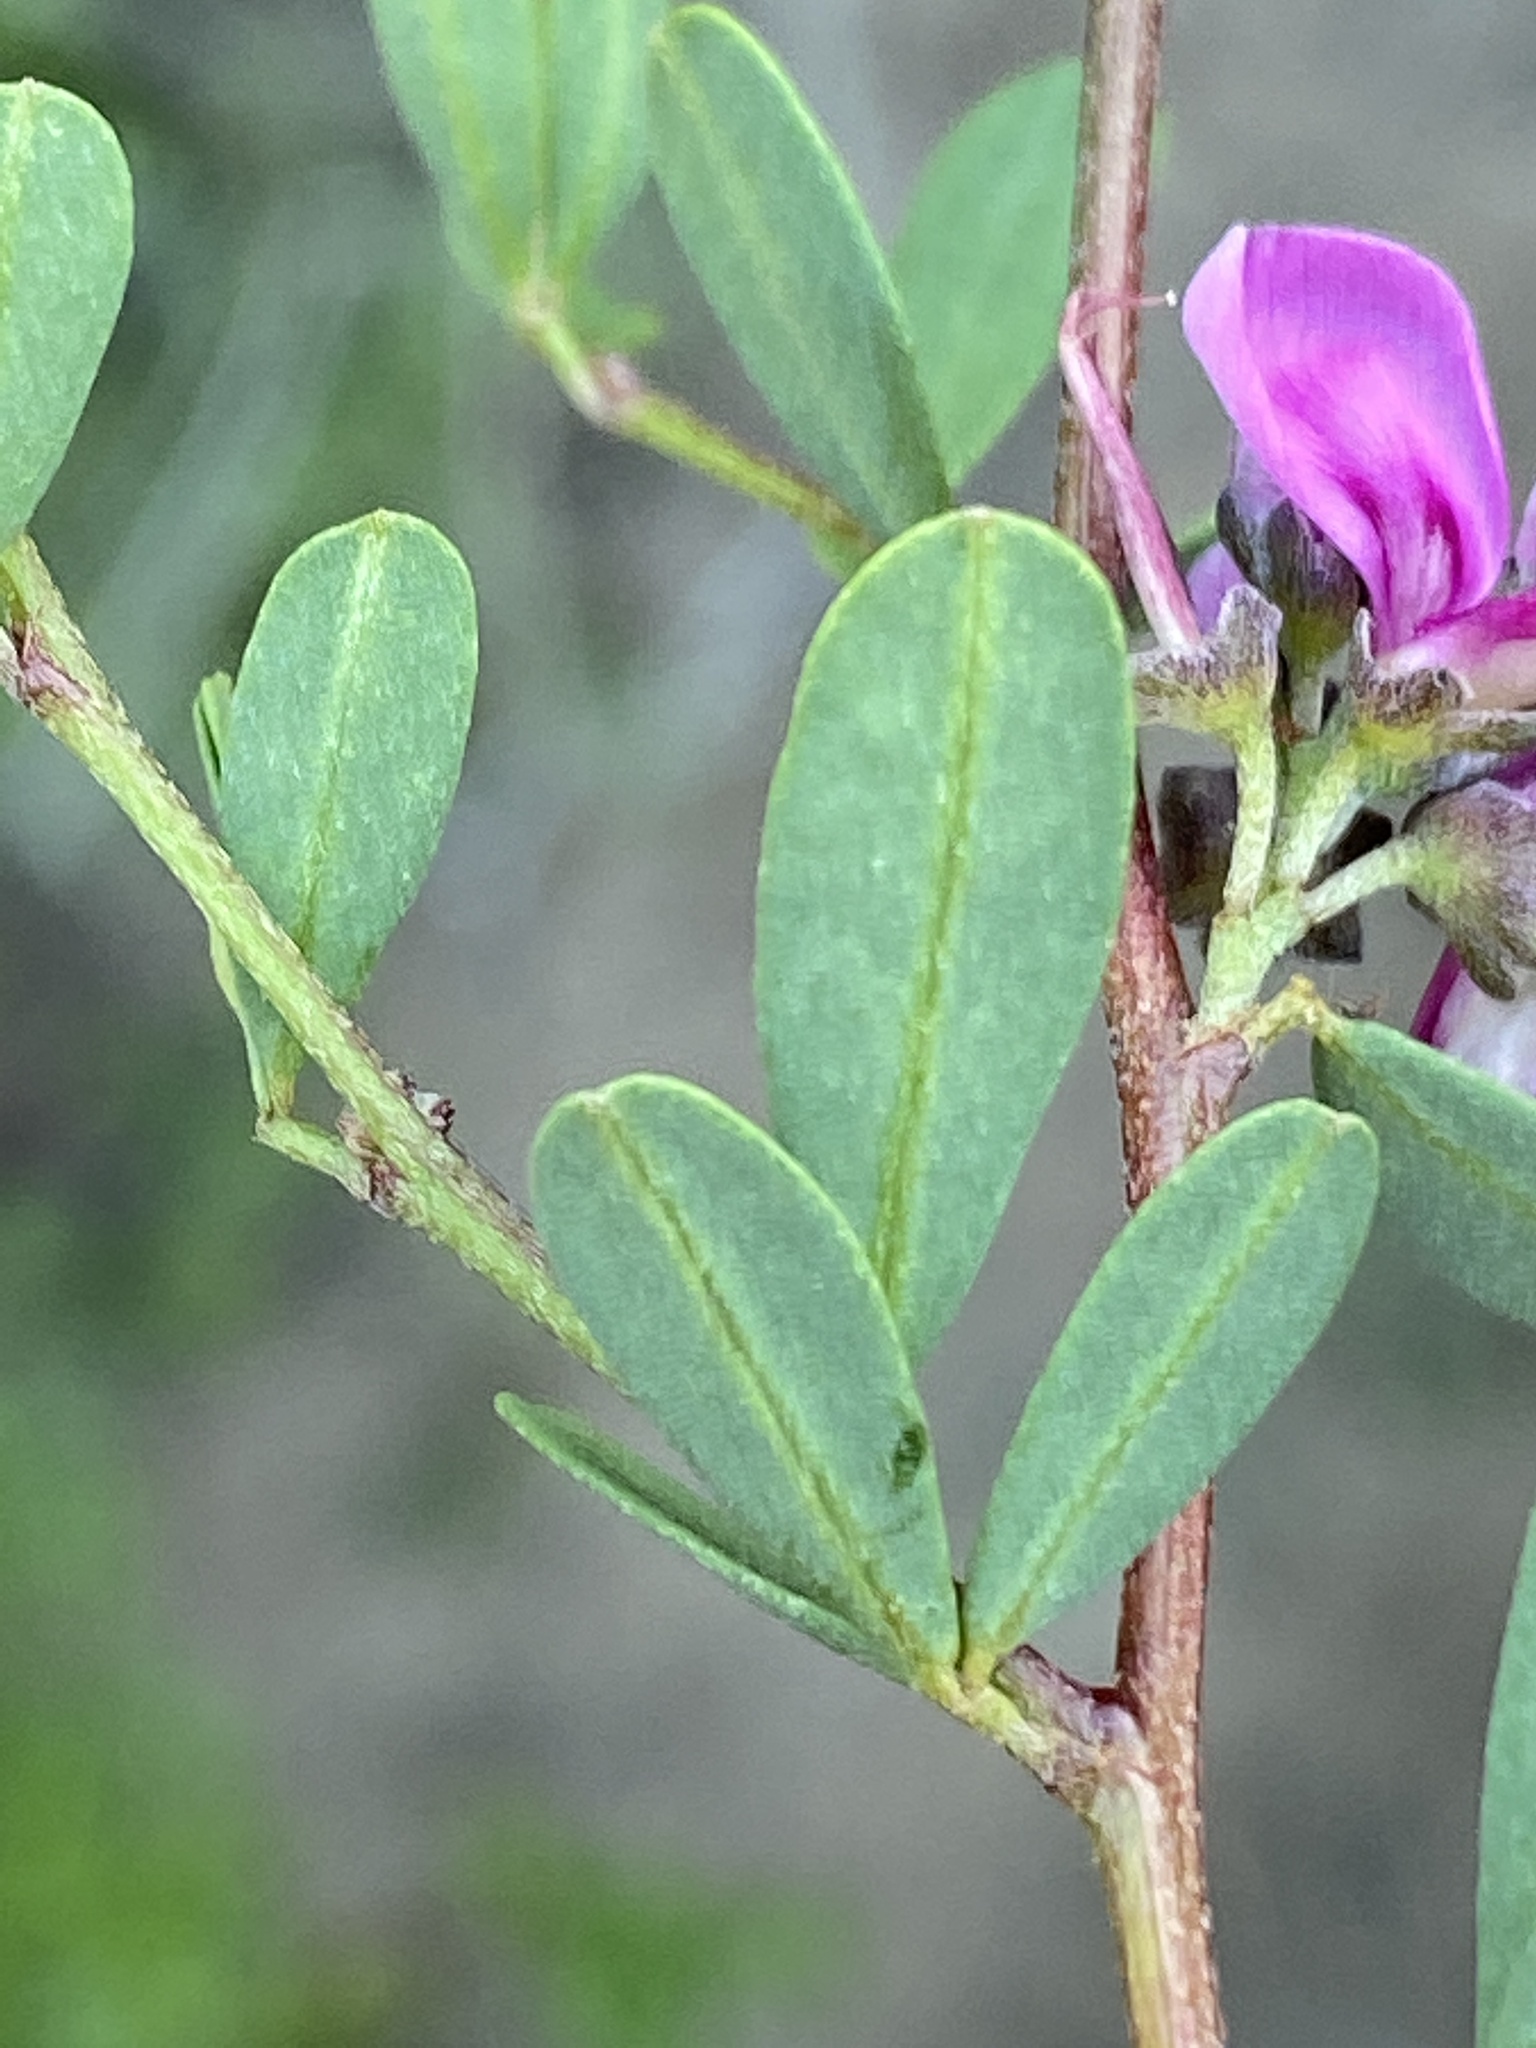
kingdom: Plantae
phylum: Tracheophyta
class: Magnoliopsida
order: Fabales
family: Fabaceae
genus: Indigofera
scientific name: Indigofera denudata
